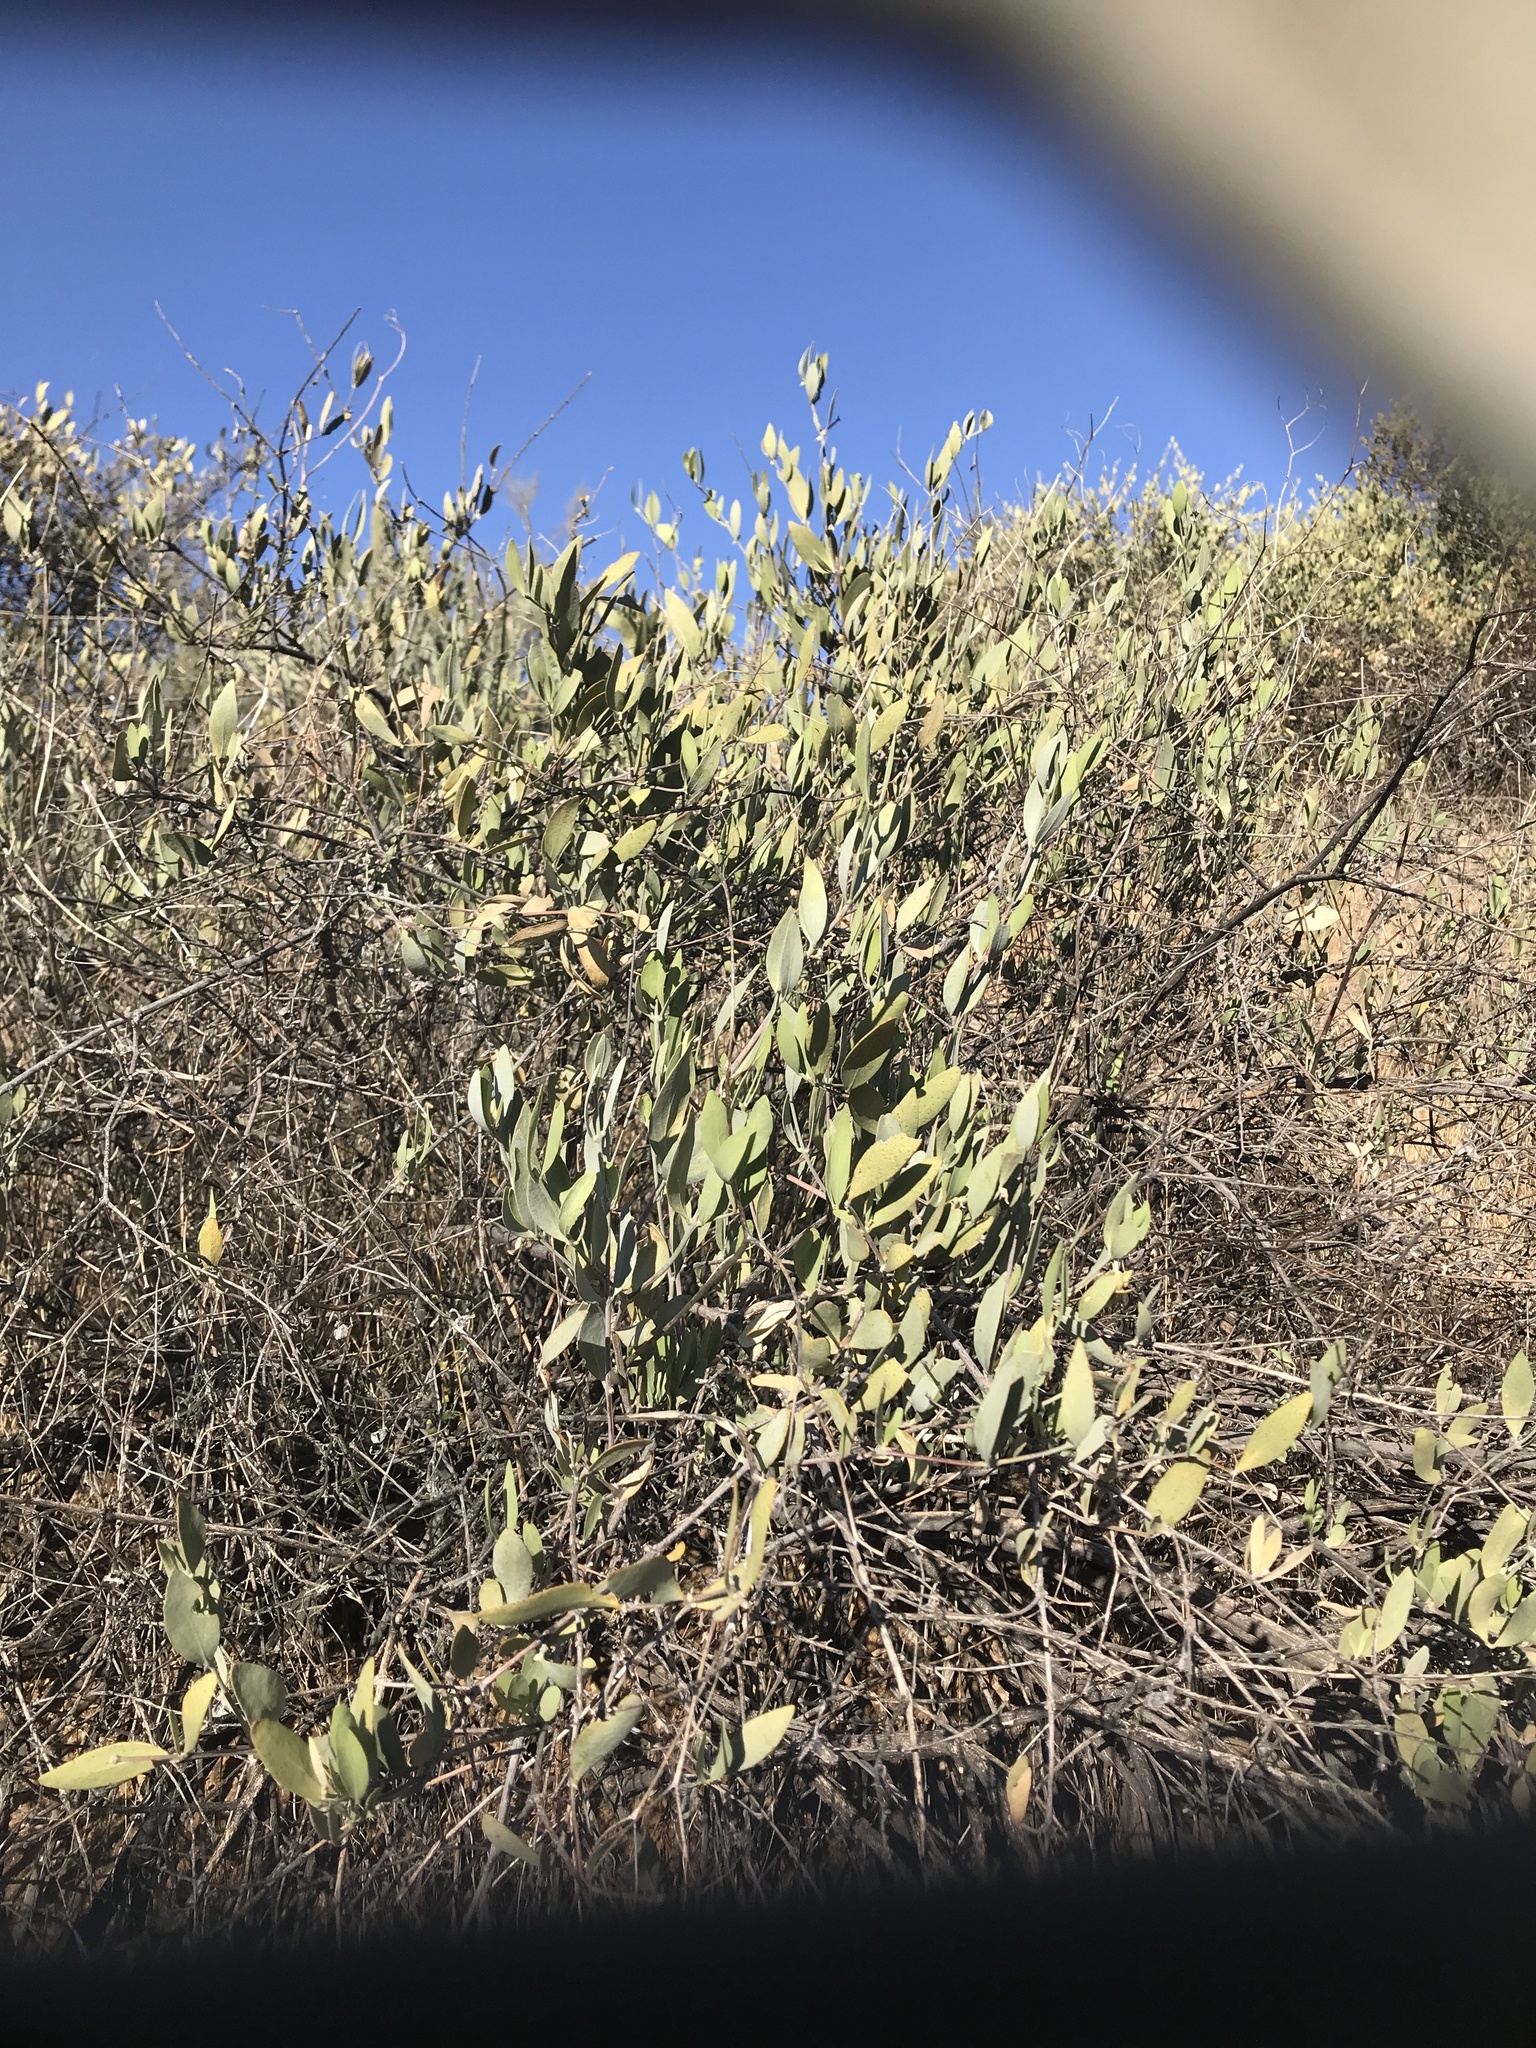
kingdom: Plantae
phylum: Tracheophyta
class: Magnoliopsida
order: Caryophyllales
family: Simmondsiaceae
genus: Simmondsia
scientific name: Simmondsia chinensis
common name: Jojoba
